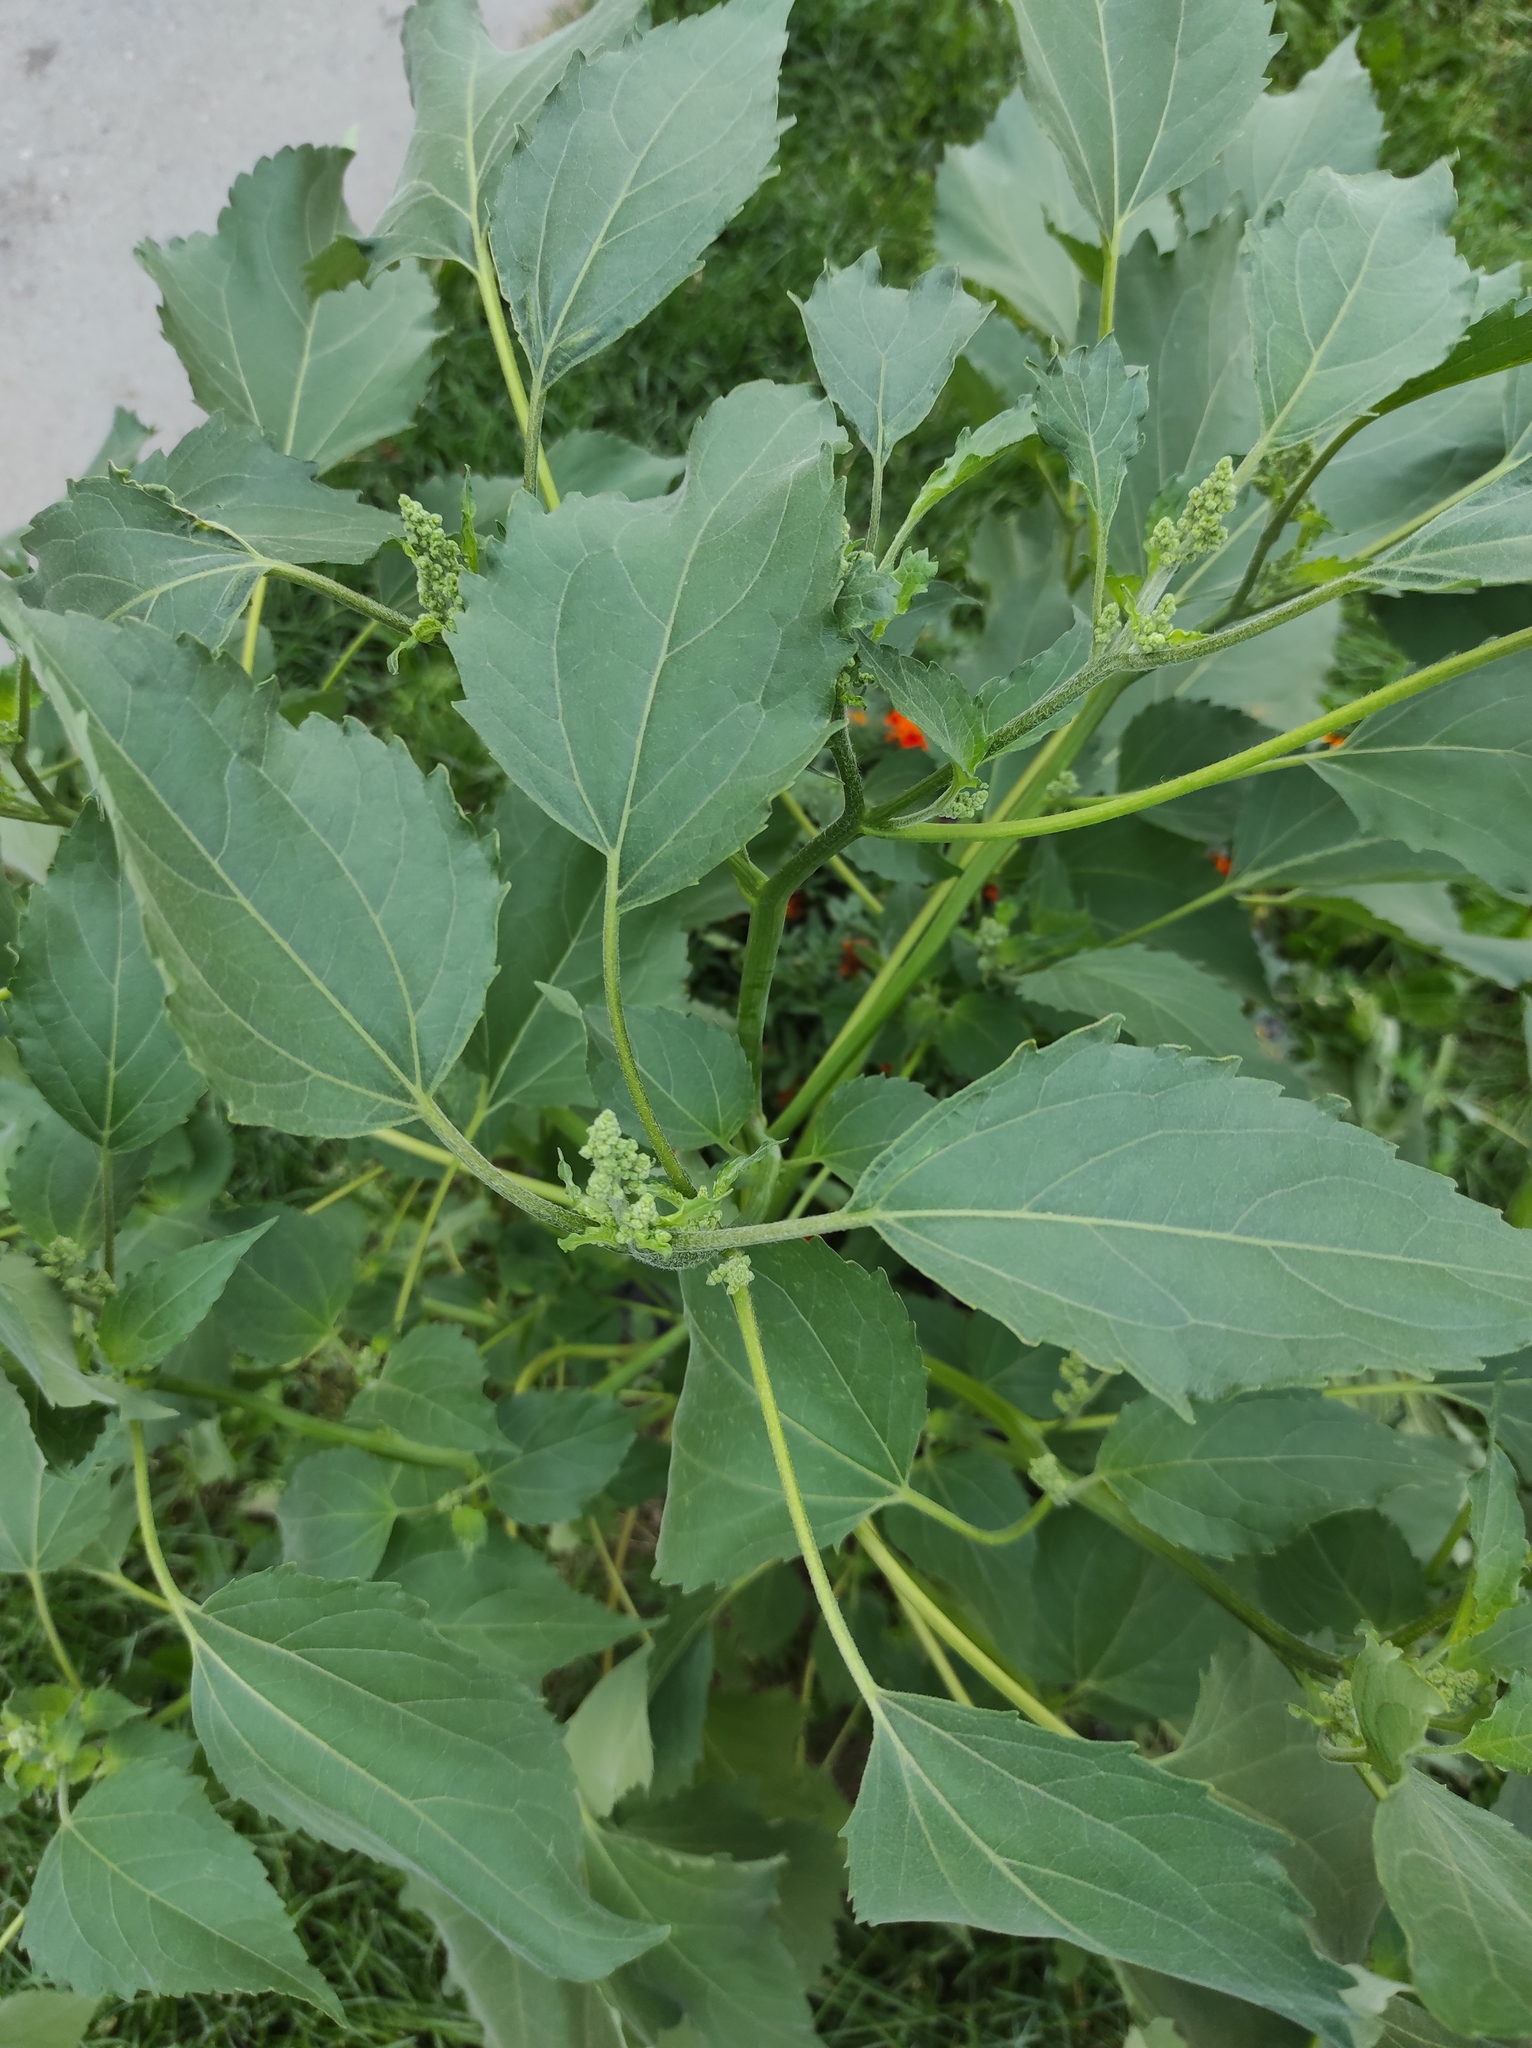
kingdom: Plantae
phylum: Tracheophyta
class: Magnoliopsida
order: Asterales
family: Asteraceae
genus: Cyclachaena
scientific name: Cyclachaena xanthiifolia
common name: Giant sumpweed
